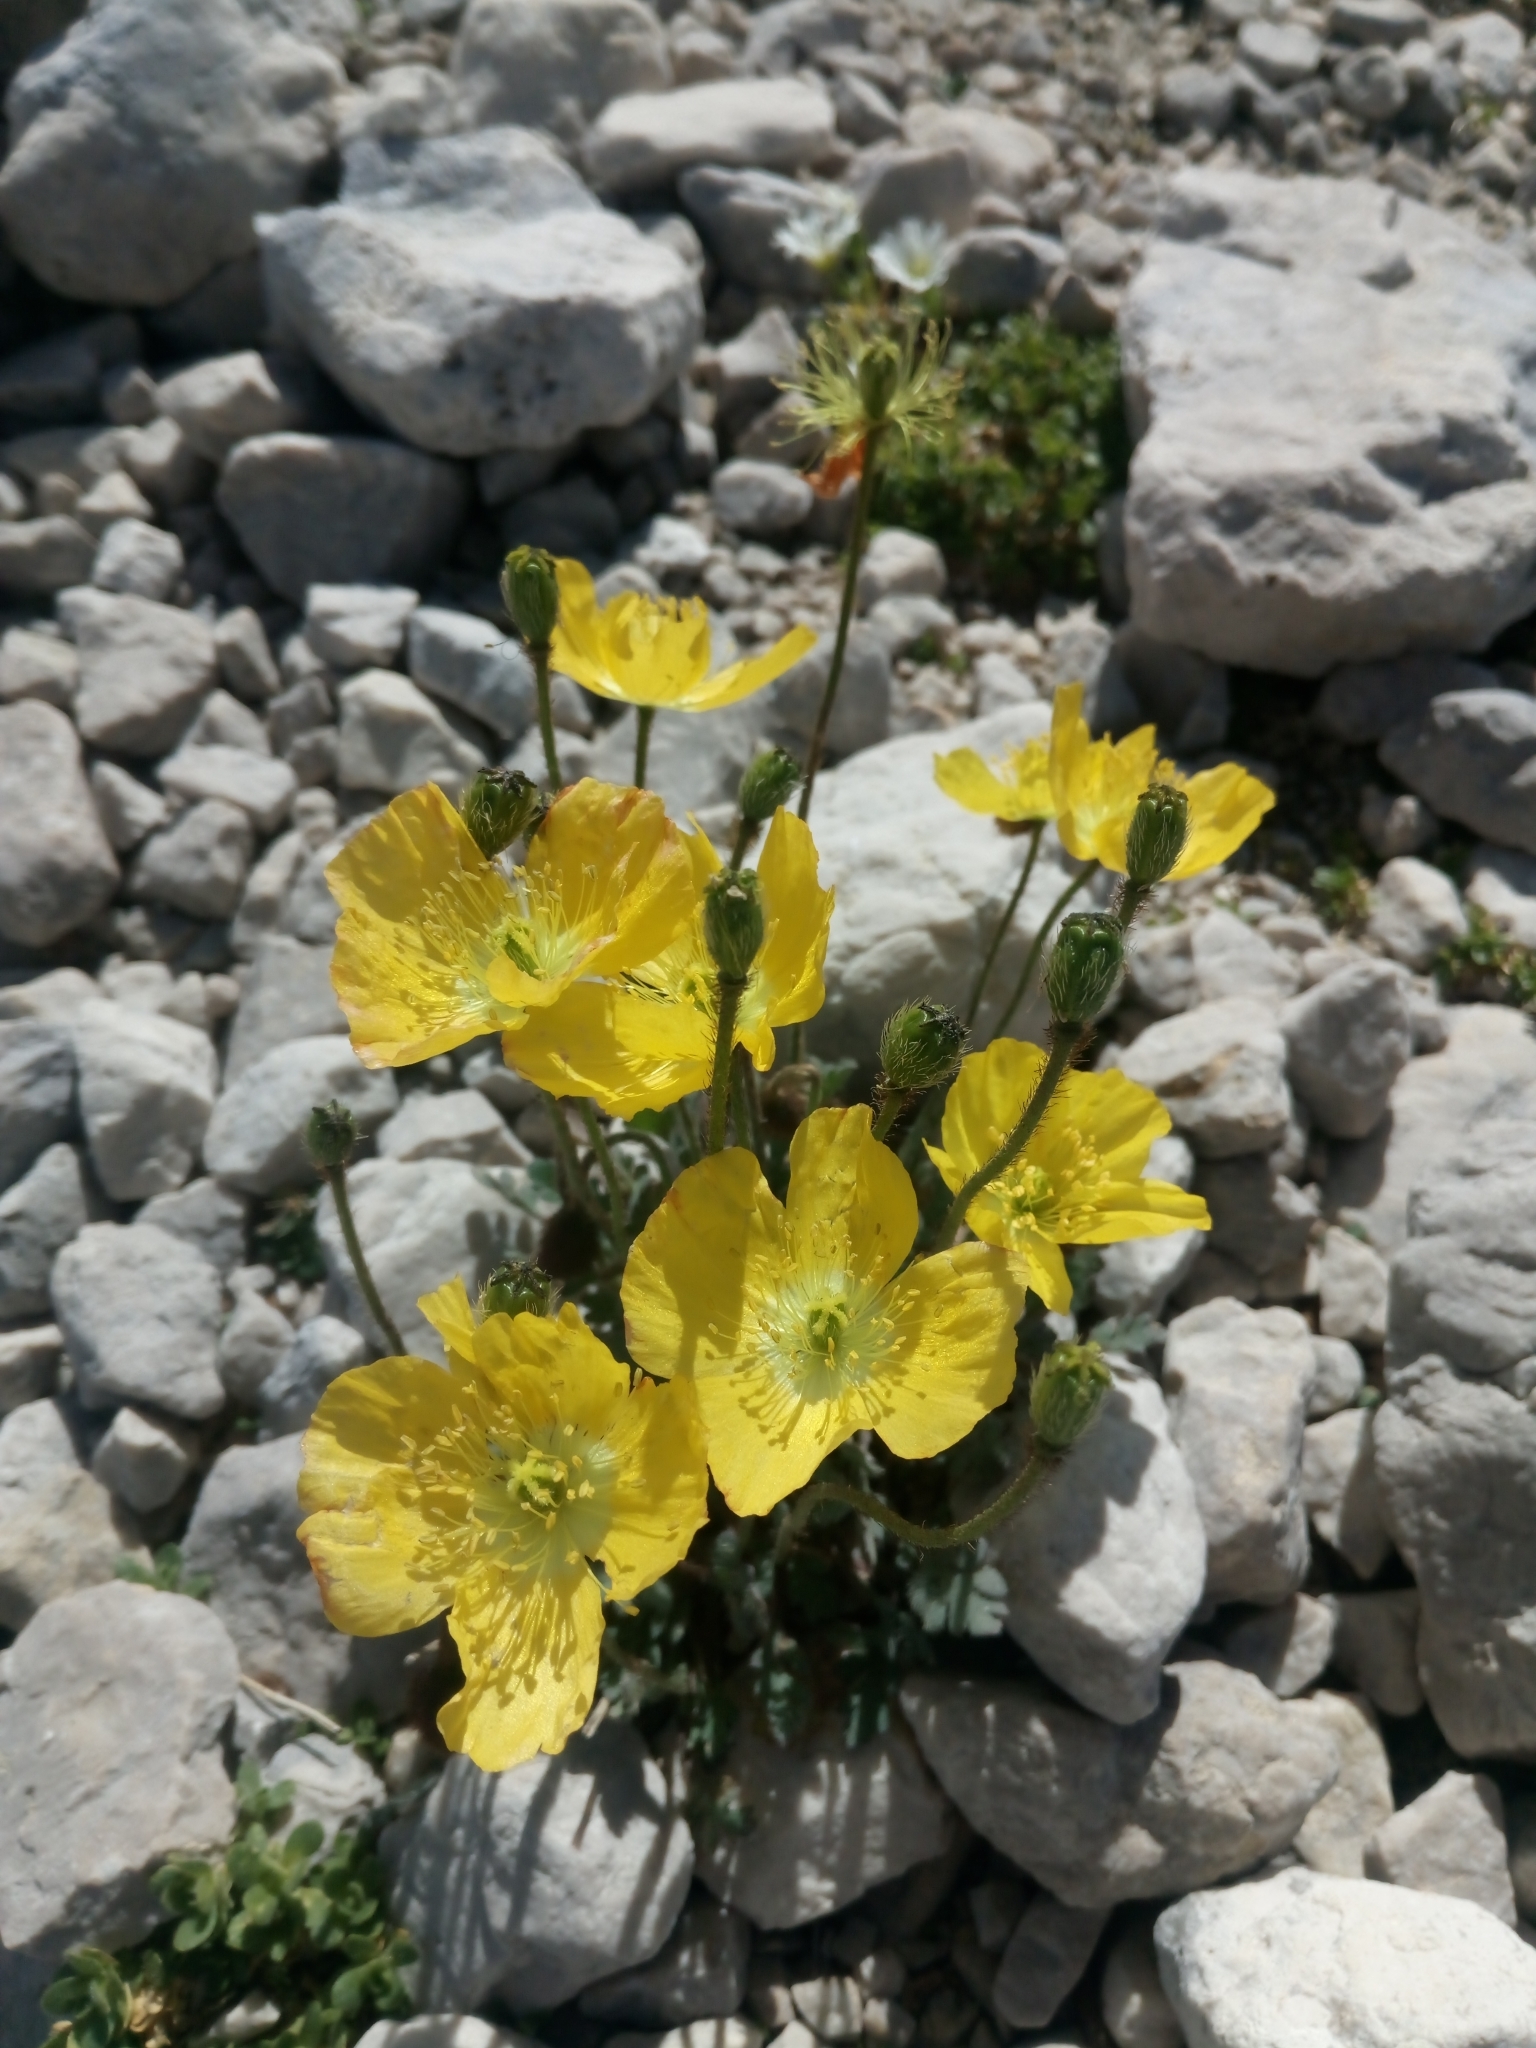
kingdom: Plantae
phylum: Tracheophyta
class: Magnoliopsida
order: Ranunculales
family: Papaveraceae
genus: Papaver
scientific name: Papaver alpinum
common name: Austrian poppy
